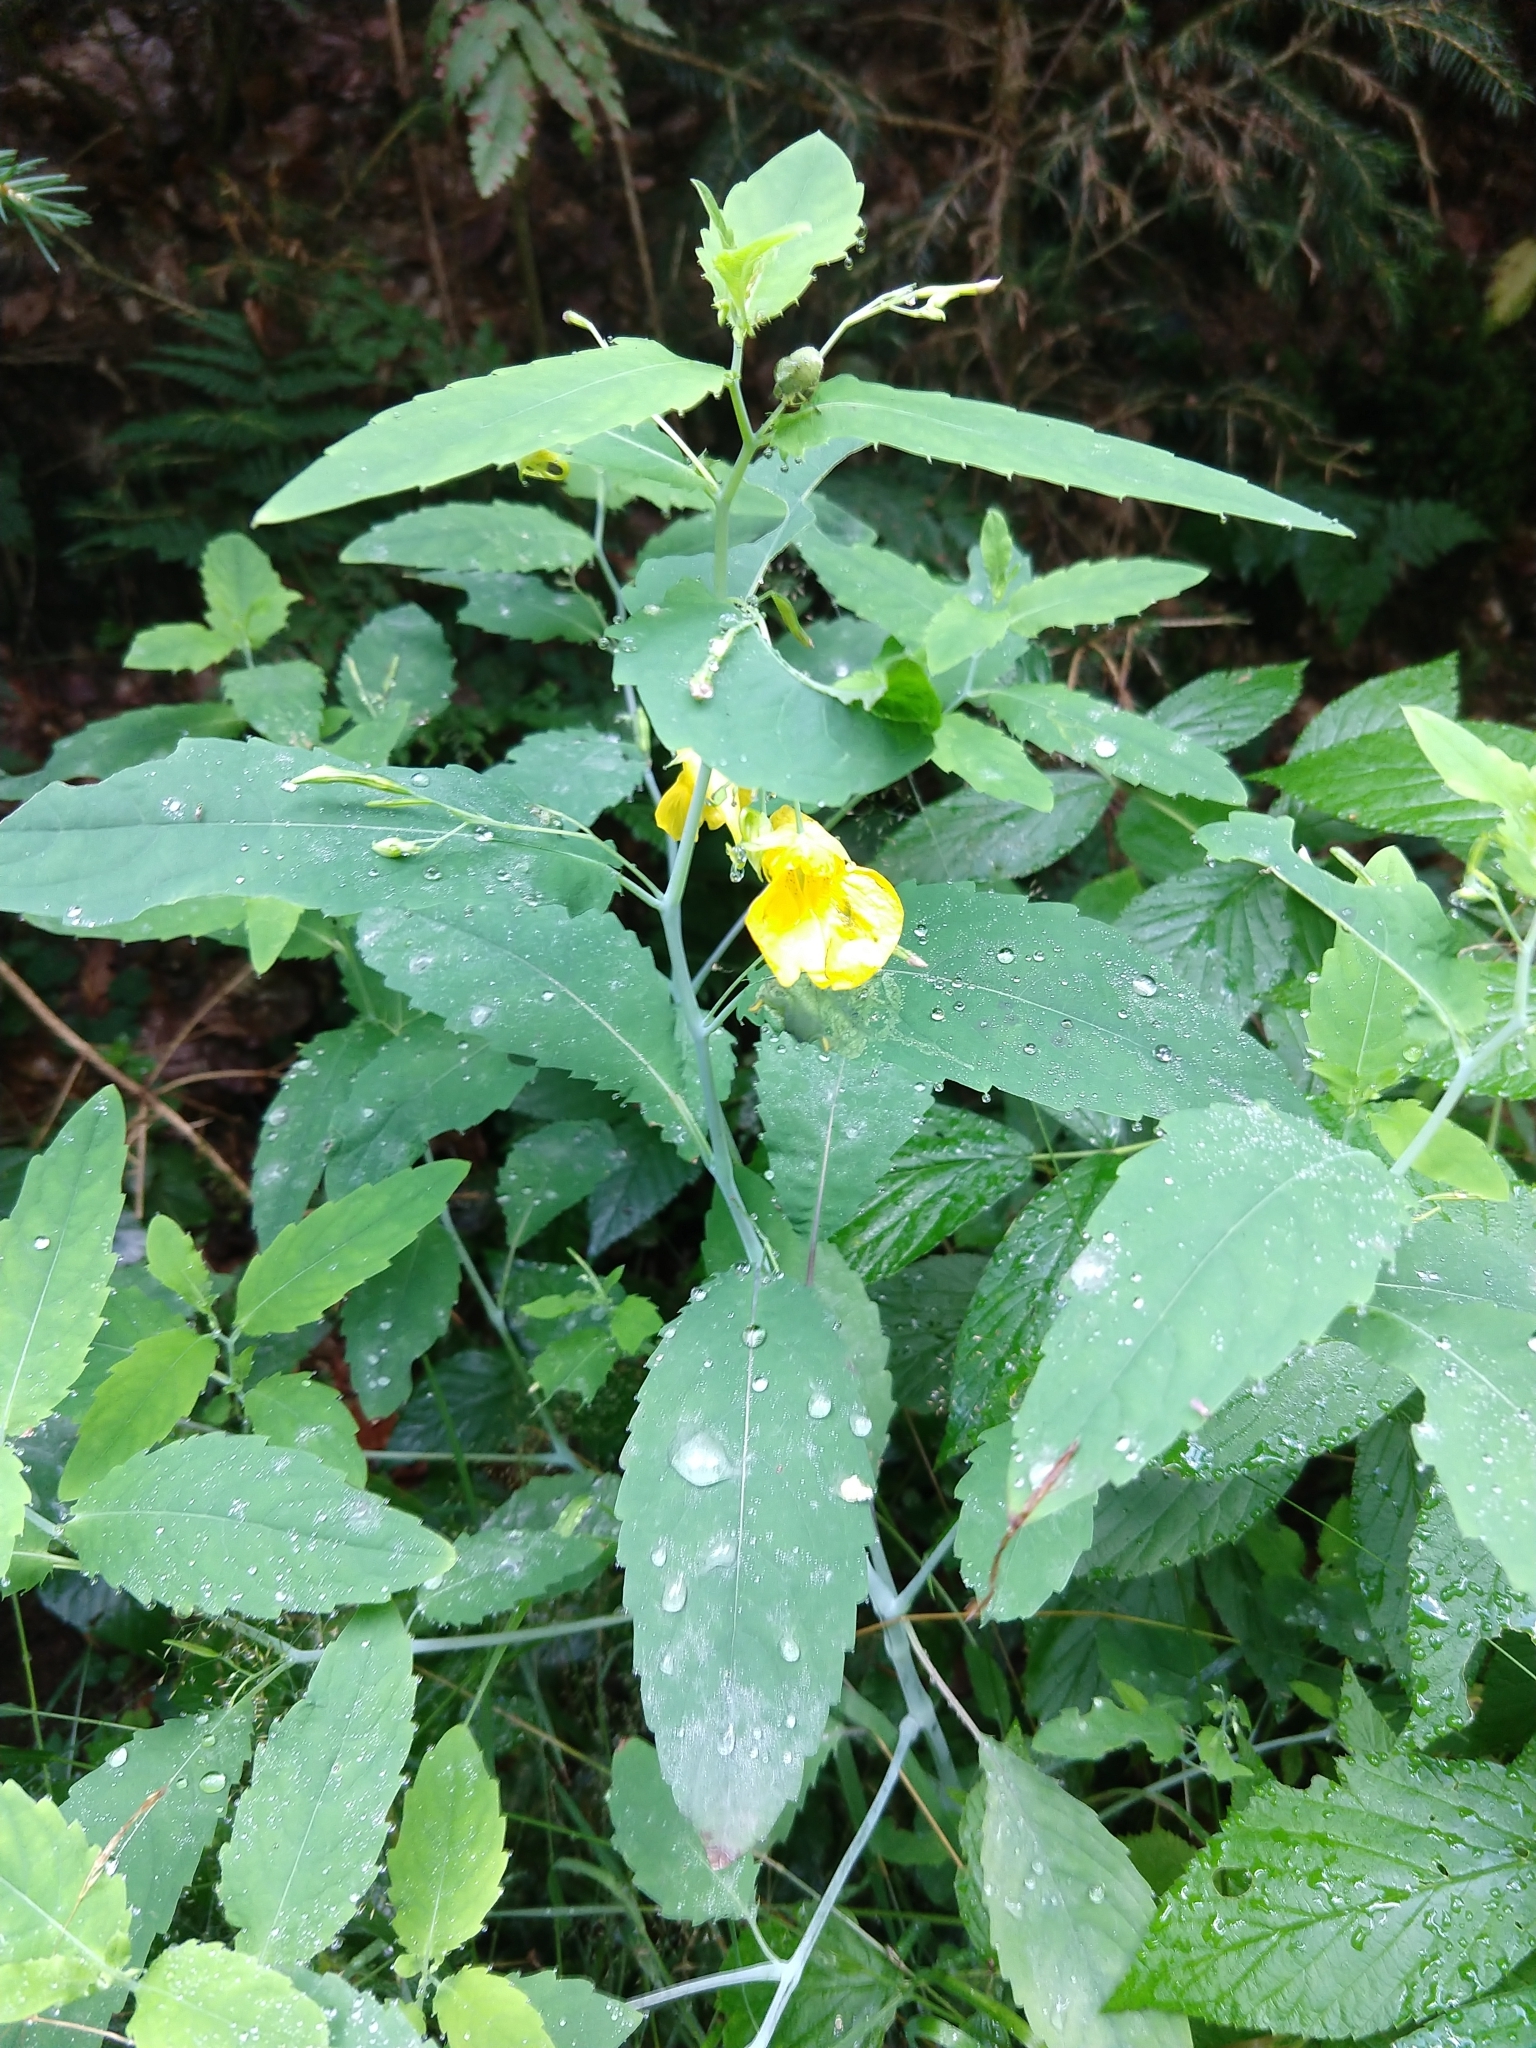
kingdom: Plantae
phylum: Tracheophyta
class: Magnoliopsida
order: Ericales
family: Balsaminaceae
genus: Impatiens
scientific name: Impatiens noli-tangere
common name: Touch-me-not balsam
